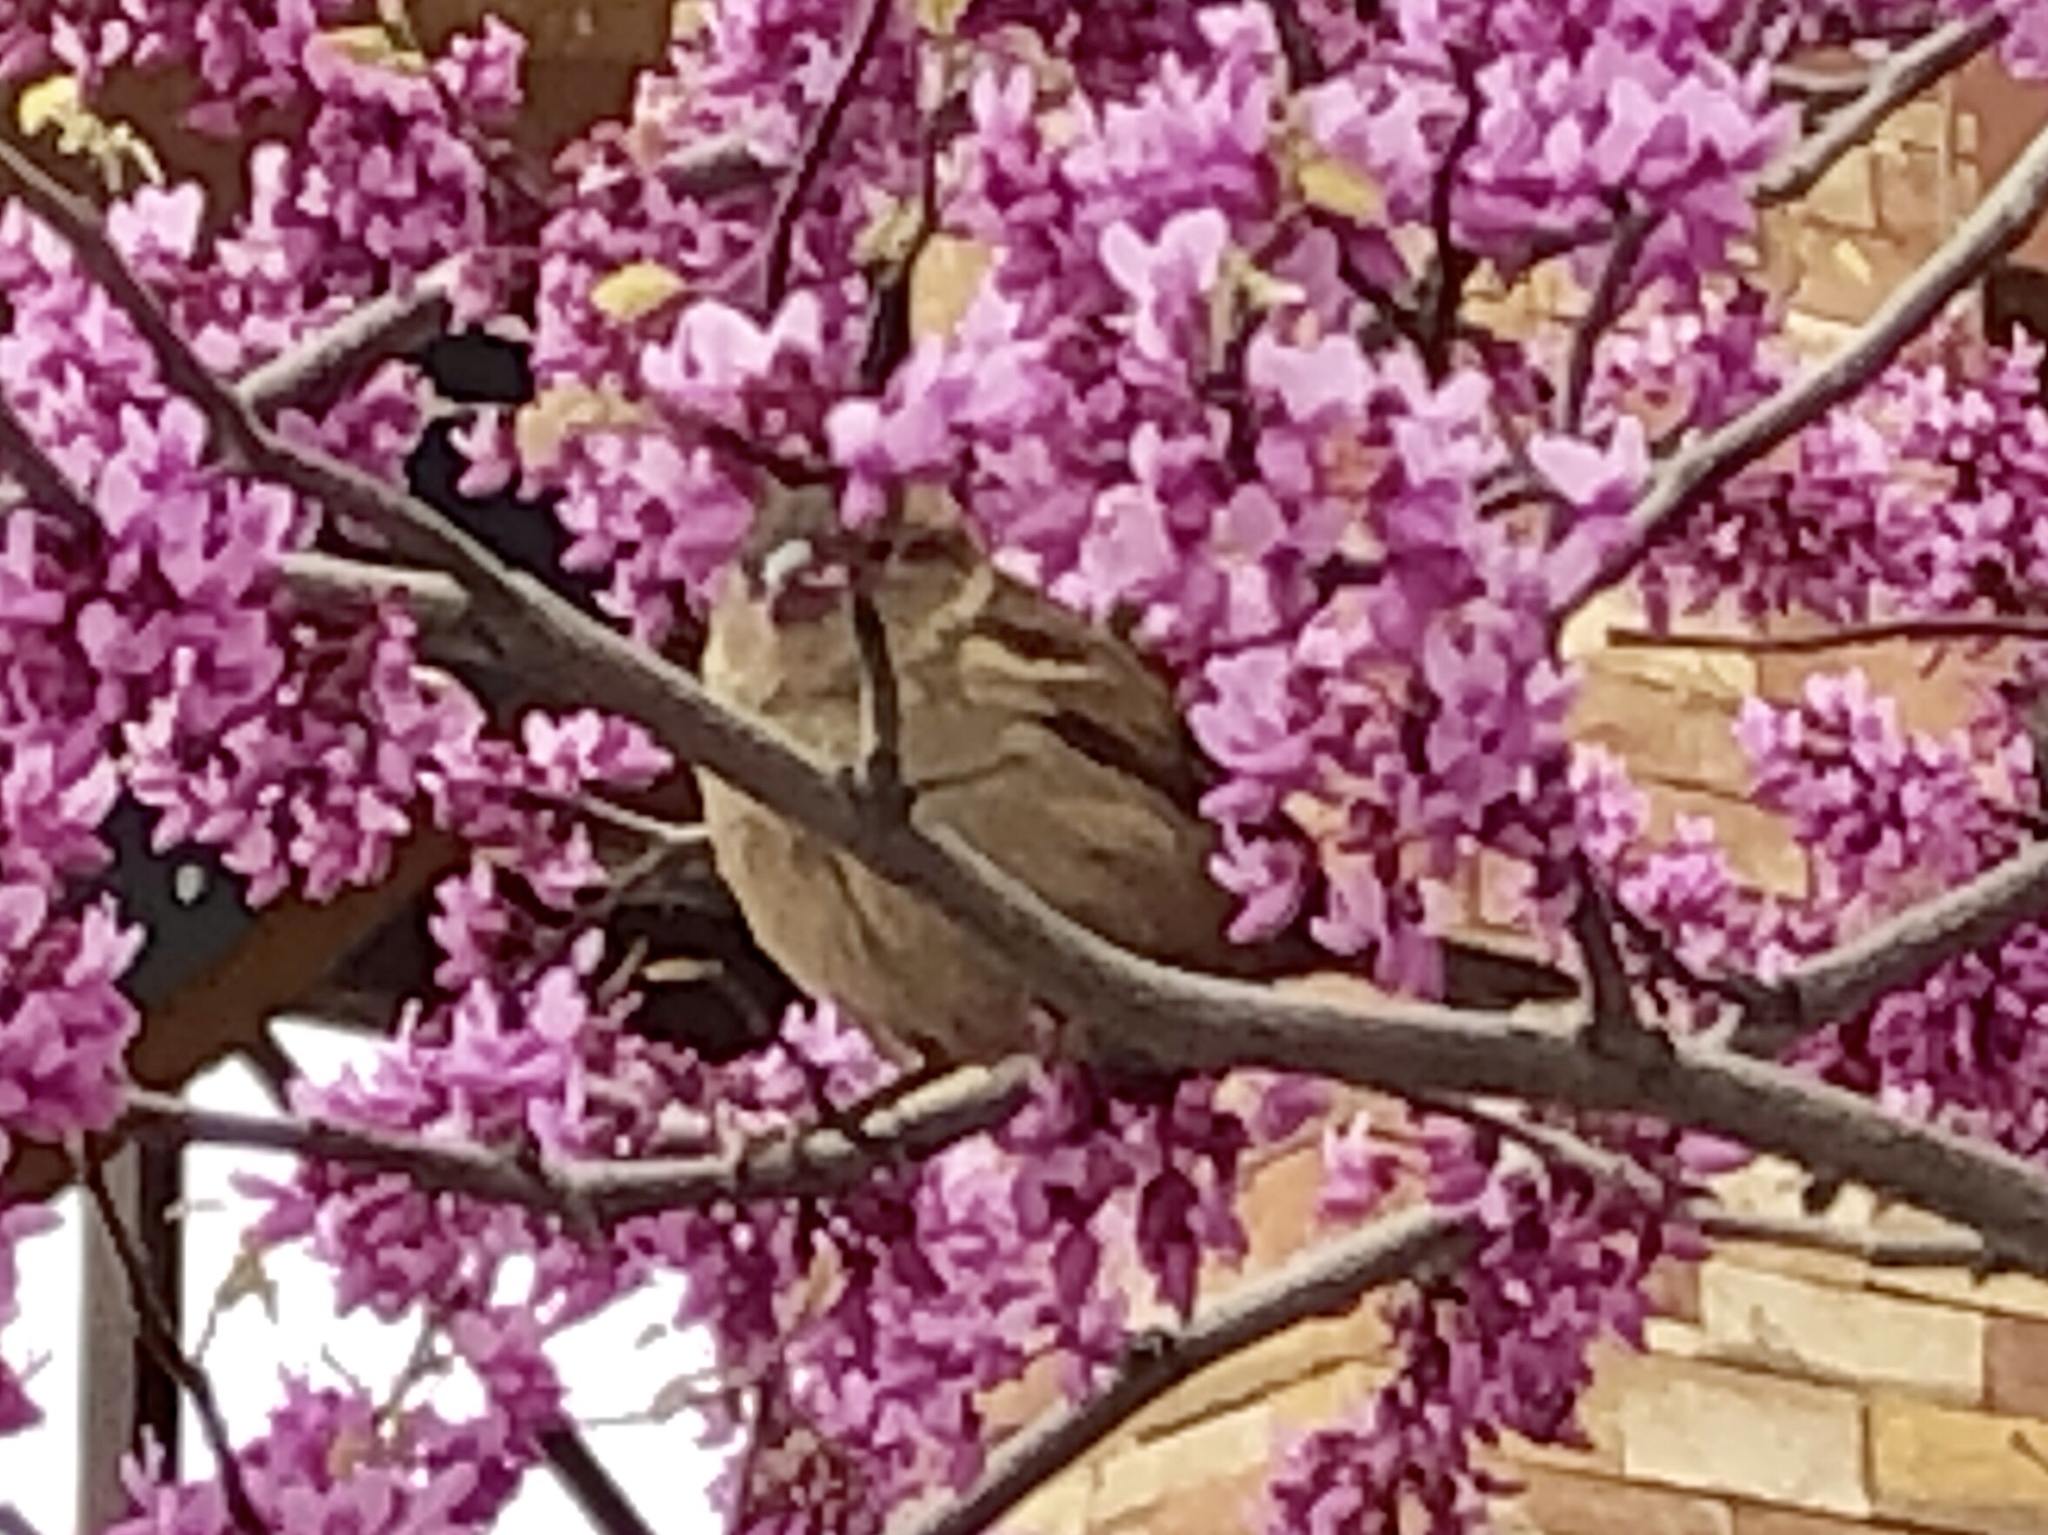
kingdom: Animalia
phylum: Chordata
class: Aves
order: Passeriformes
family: Passeridae
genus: Passer
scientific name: Passer domesticus
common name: House sparrow
